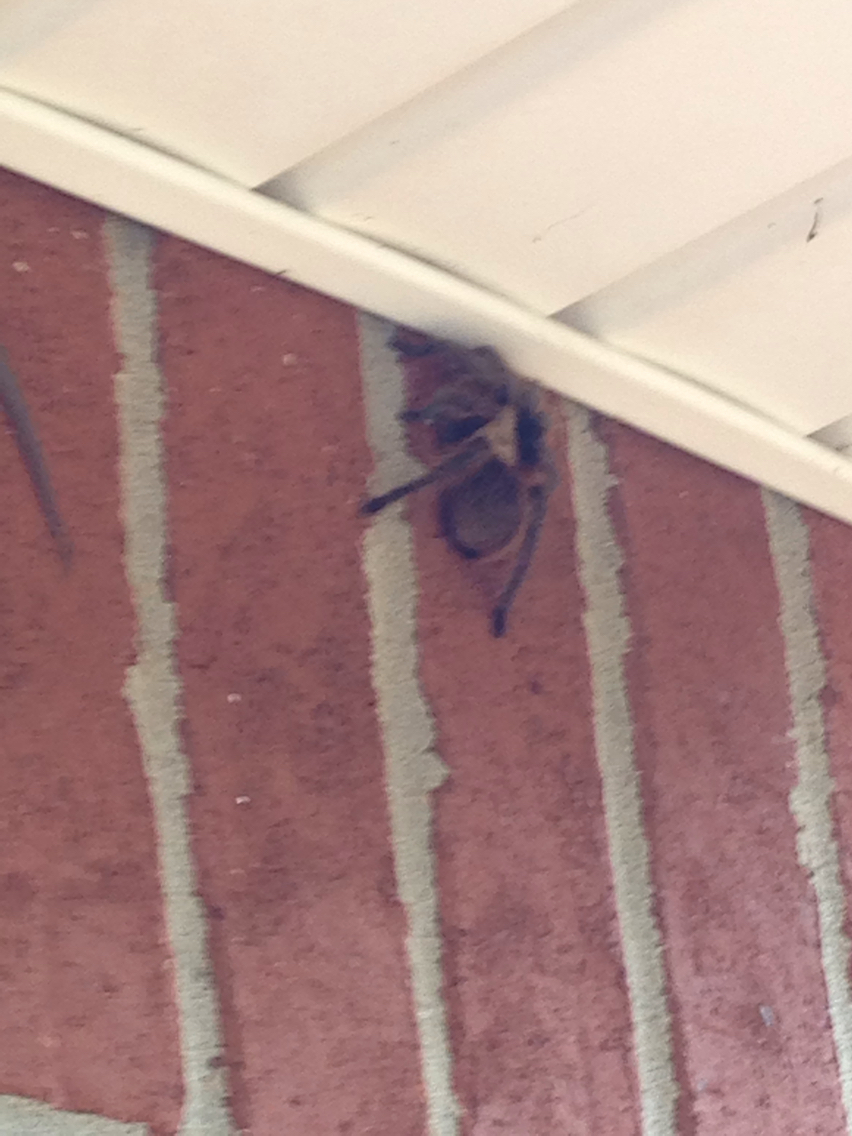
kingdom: Animalia
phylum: Arthropoda
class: Arachnida
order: Araneae
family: Theraphosidae
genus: Aphonopelma
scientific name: Aphonopelma hentzi
